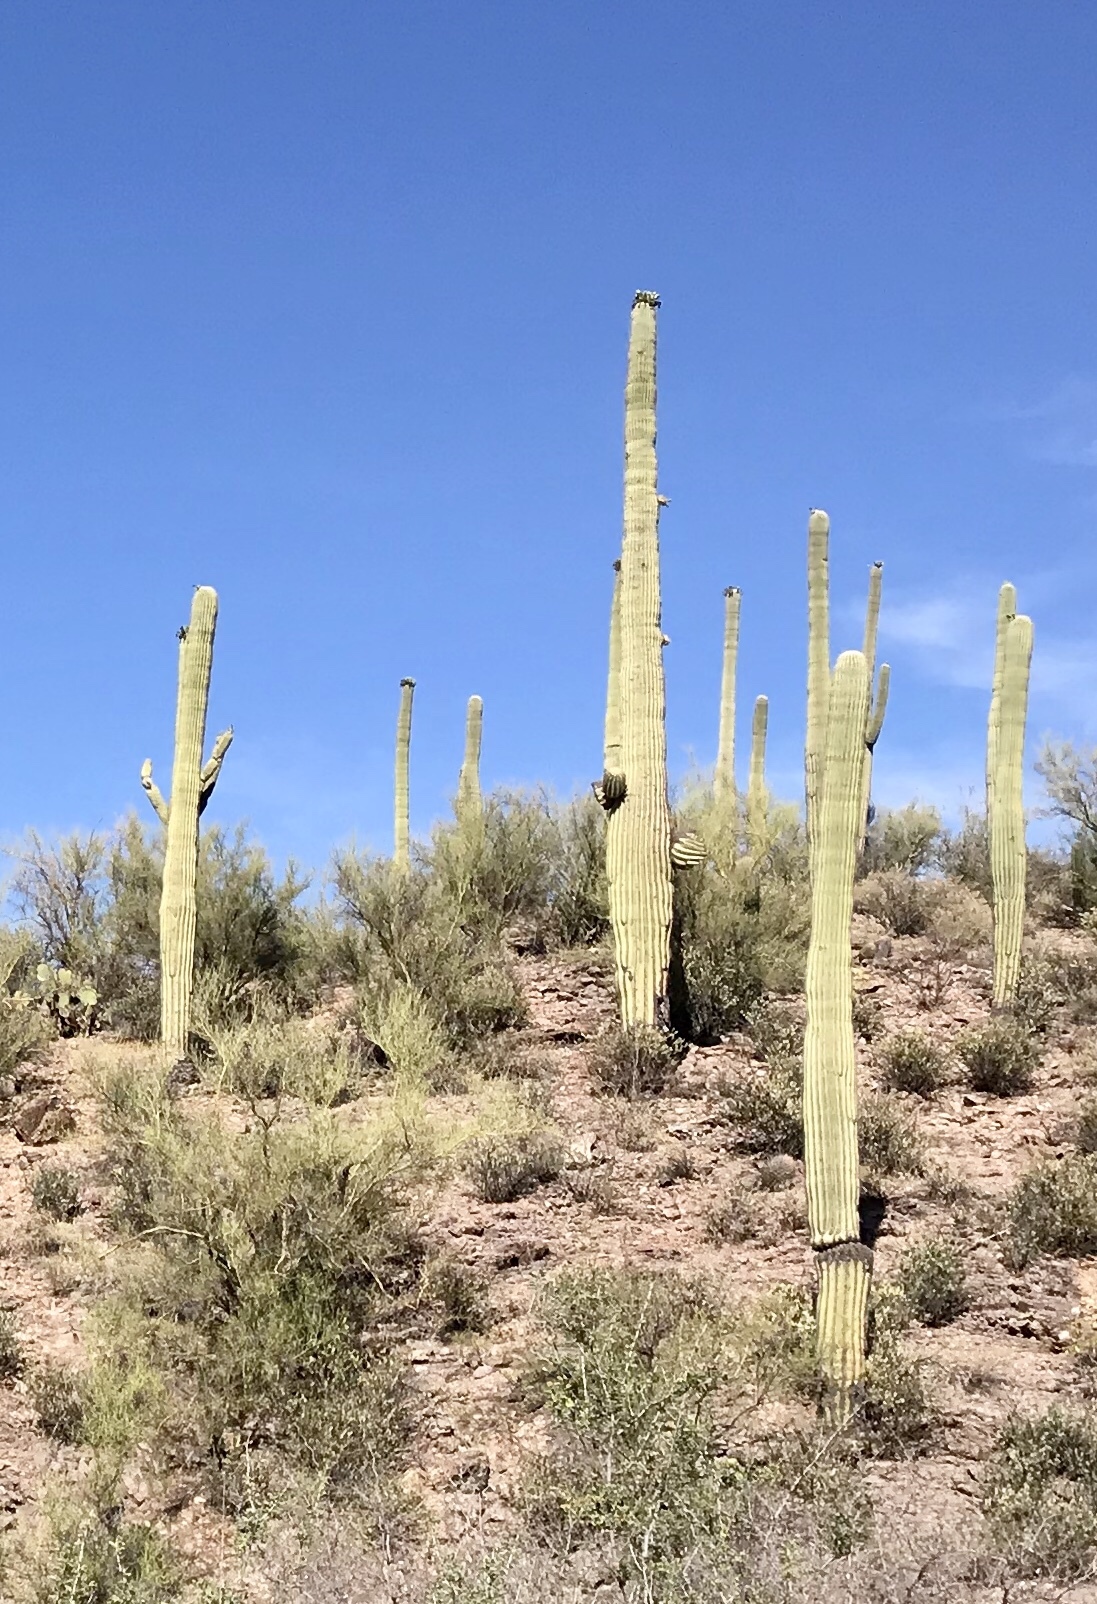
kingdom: Plantae
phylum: Tracheophyta
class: Magnoliopsida
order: Caryophyllales
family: Cactaceae
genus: Carnegiea
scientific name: Carnegiea gigantea
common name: Saguaro
